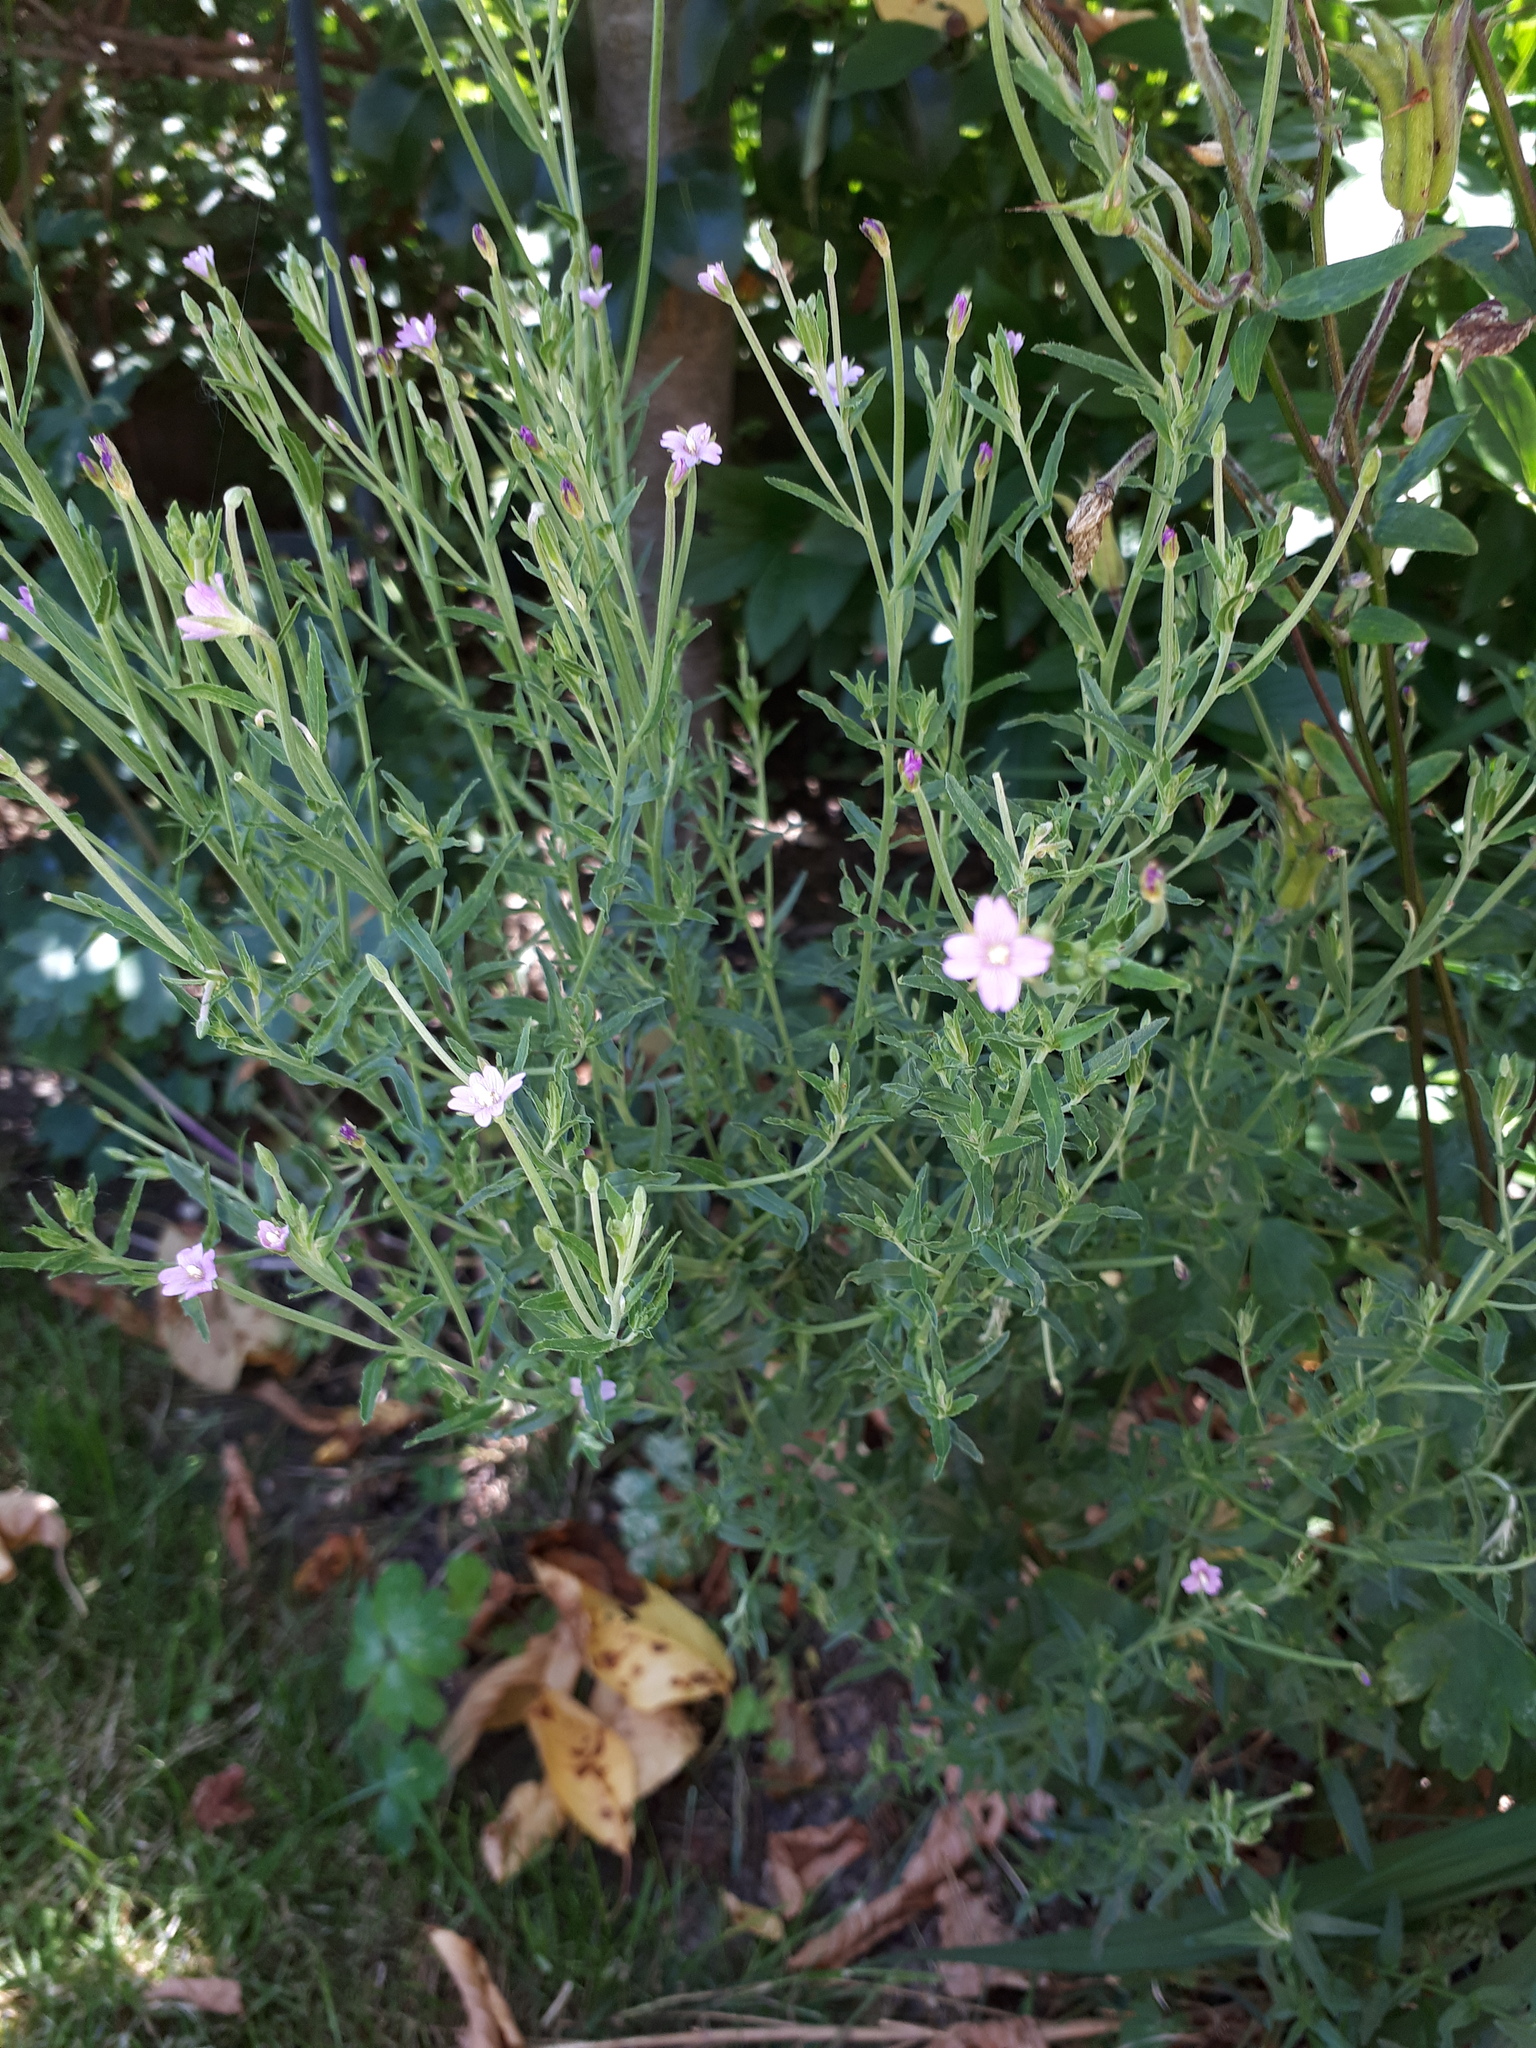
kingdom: Plantae
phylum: Tracheophyta
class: Magnoliopsida
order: Myrtales
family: Onagraceae
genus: Epilobium
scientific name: Epilobium lamyi
